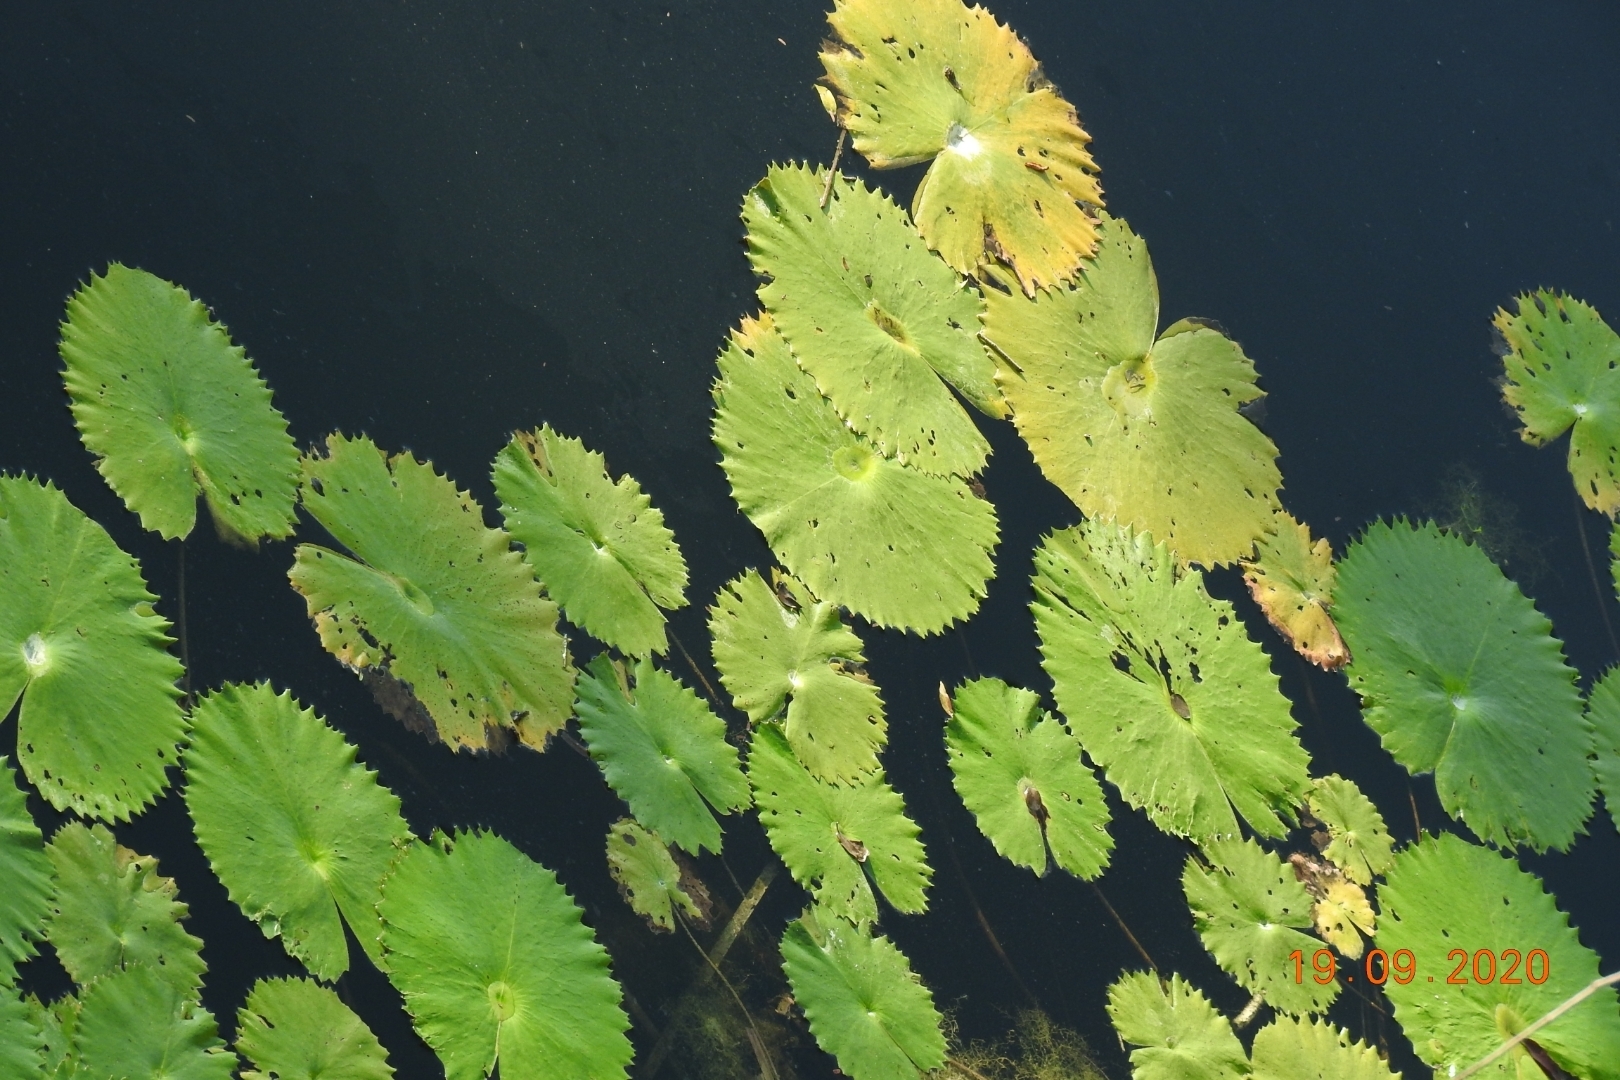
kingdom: Plantae
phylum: Tracheophyta
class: Magnoliopsida
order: Nymphaeales
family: Nymphaeaceae
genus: Nymphaea
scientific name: Nymphaea ampla
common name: Dotleaf waterlily
